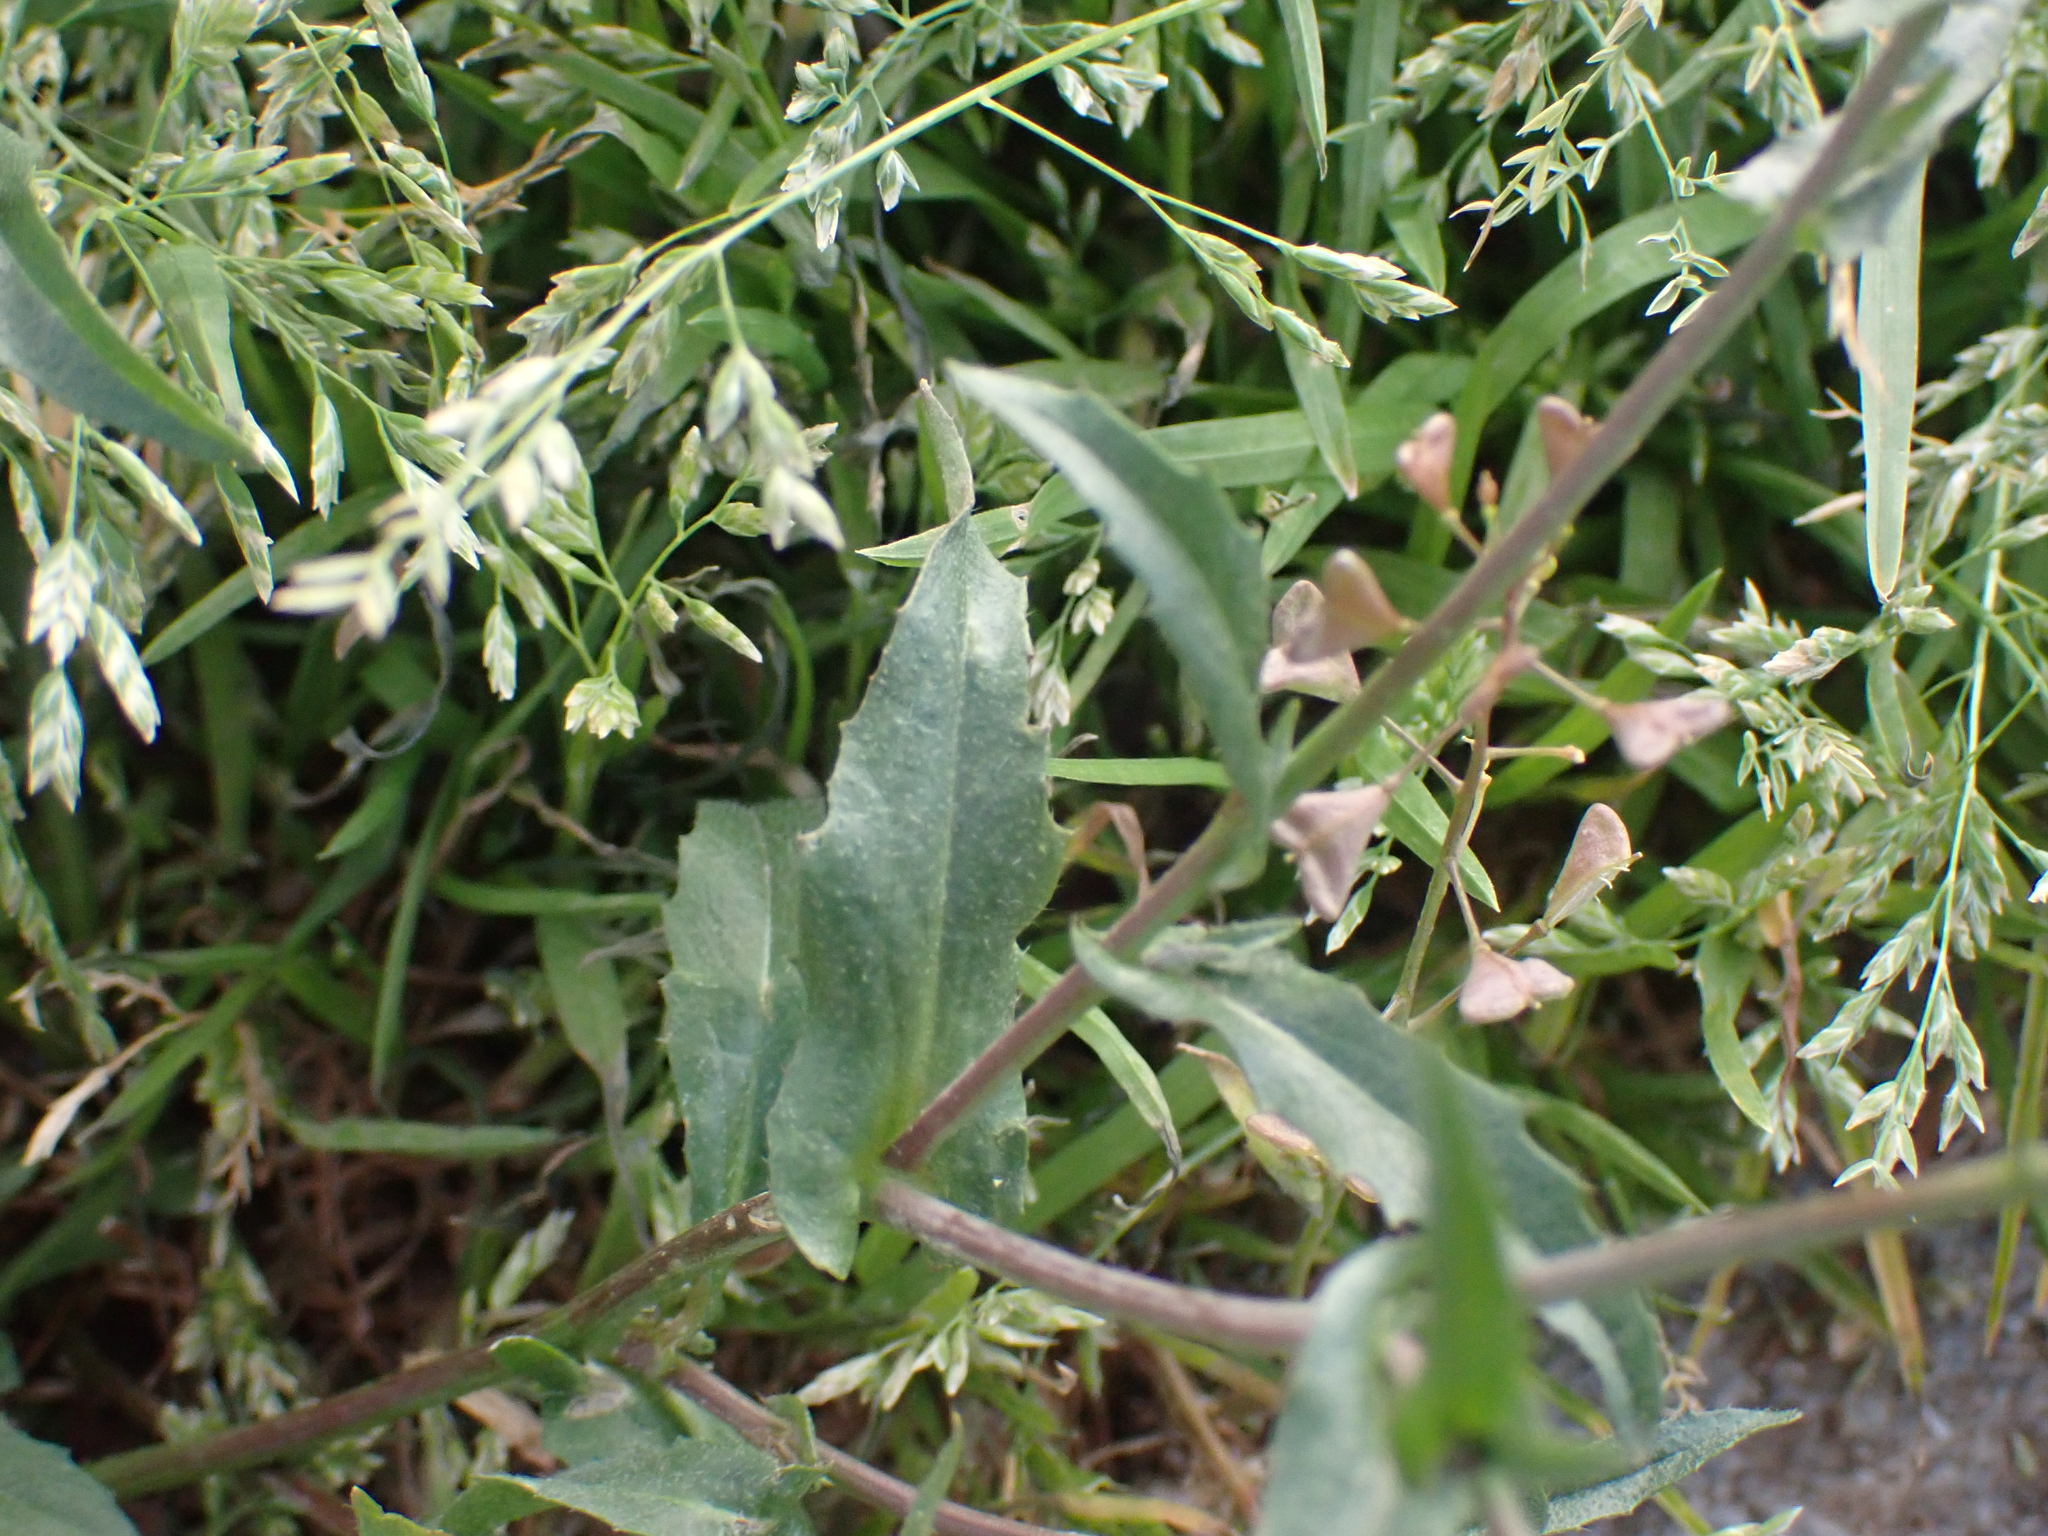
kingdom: Plantae
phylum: Tracheophyta
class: Magnoliopsida
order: Brassicales
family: Brassicaceae
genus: Capsella
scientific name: Capsella bursa-pastoris
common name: Shepherd's purse
